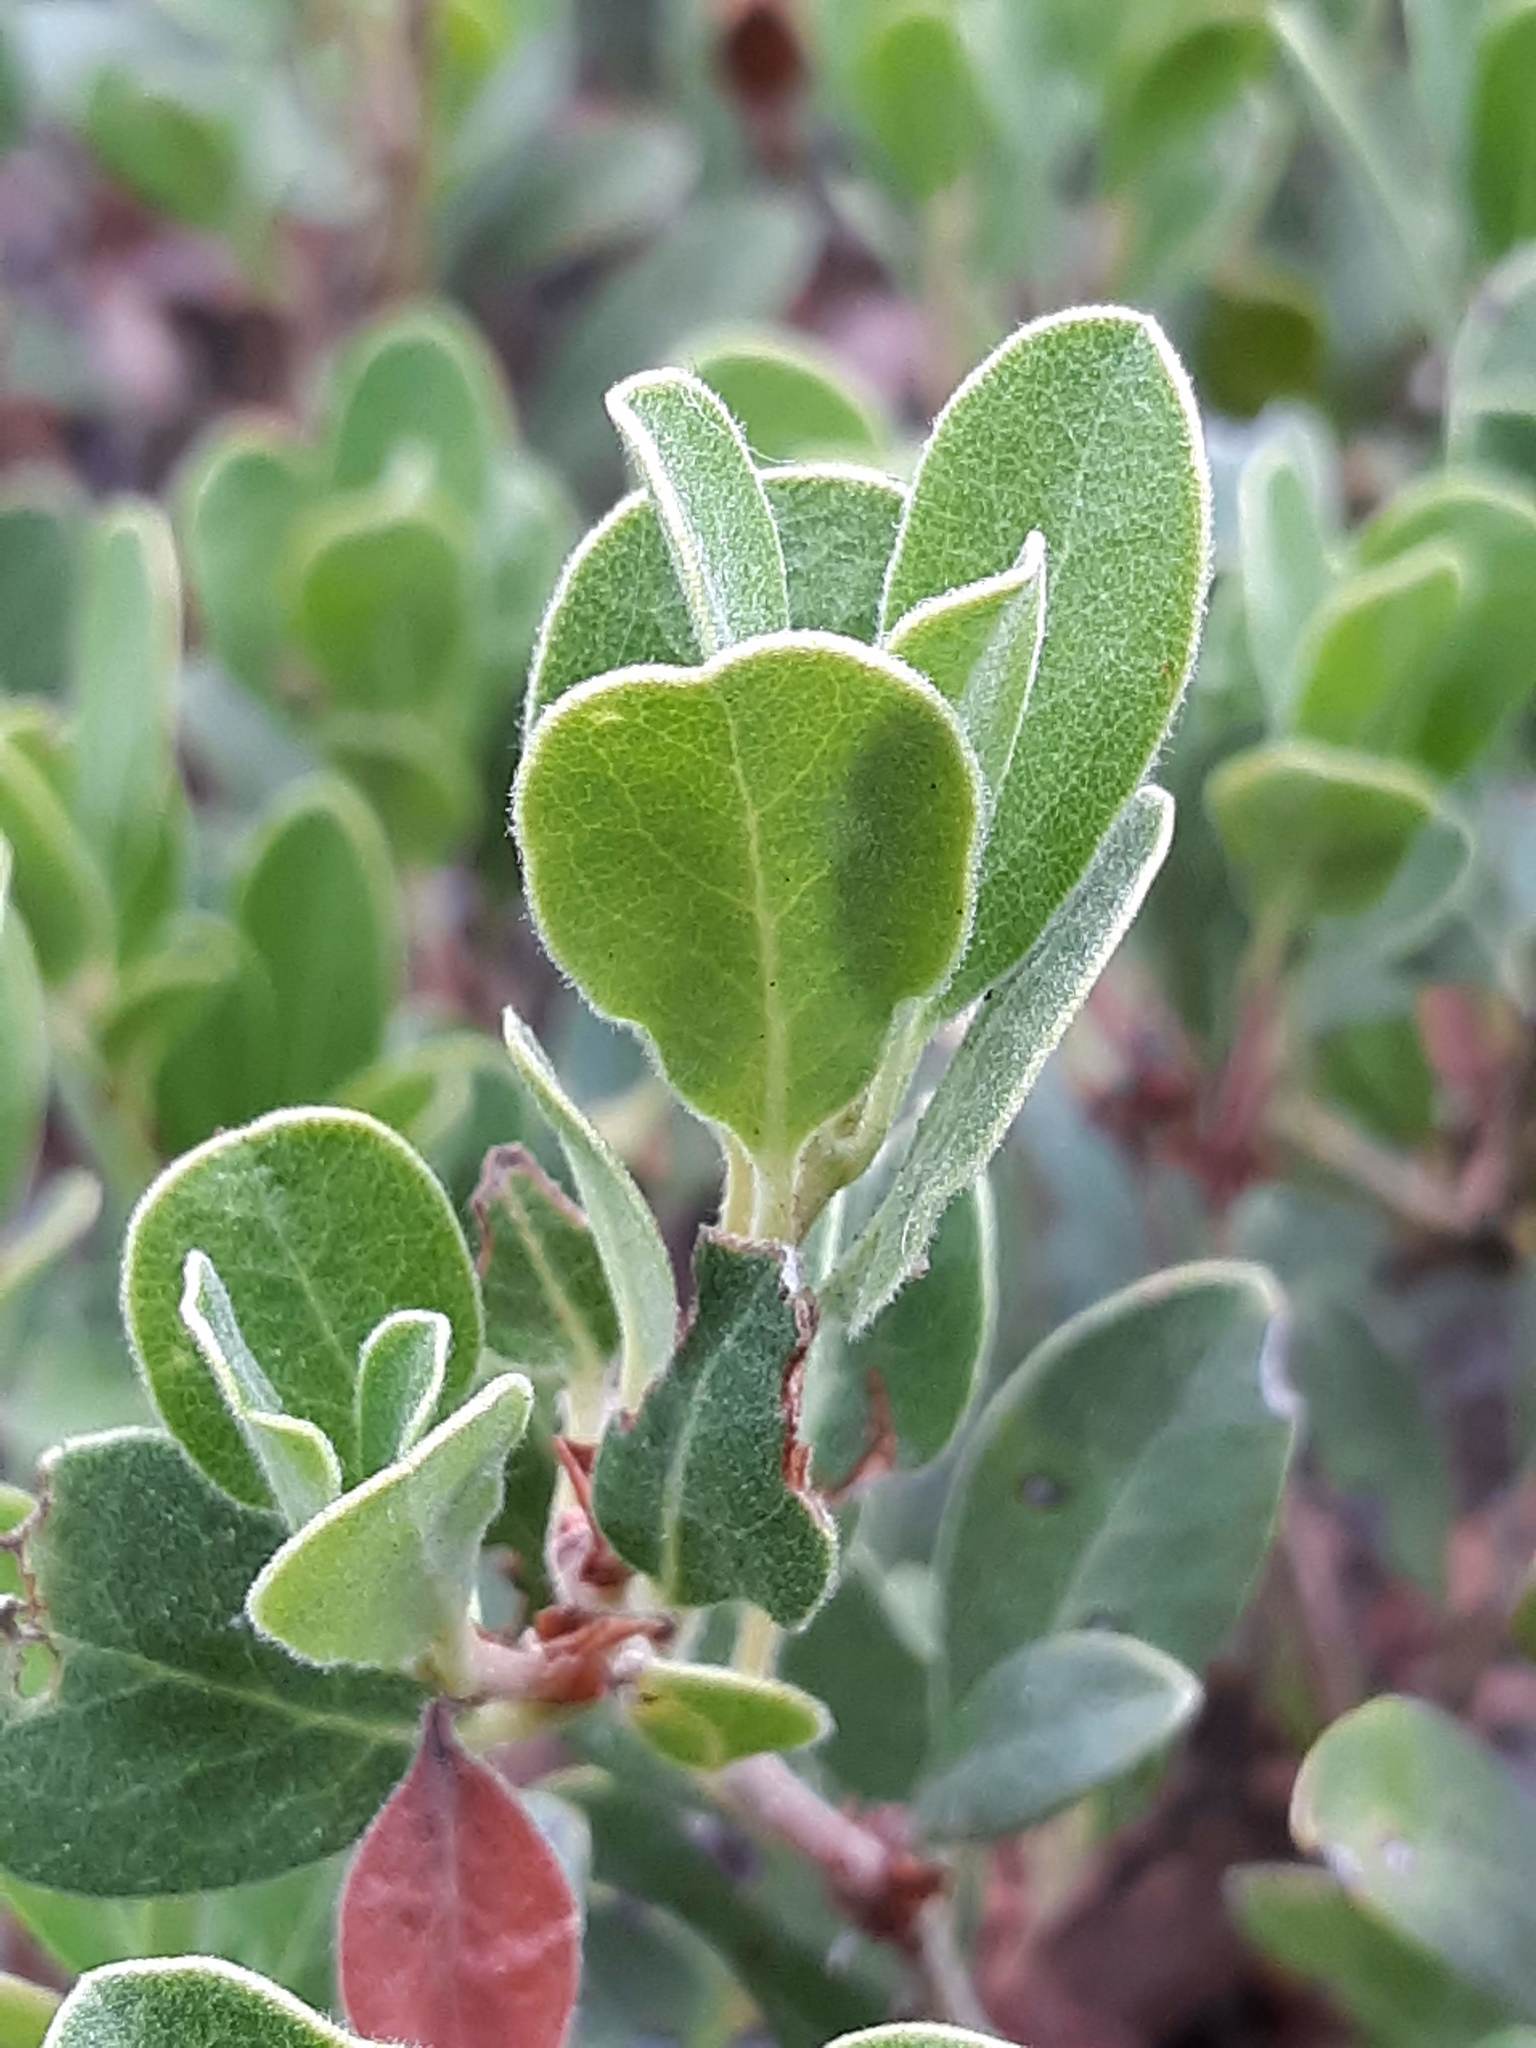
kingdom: Plantae
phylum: Tracheophyta
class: Magnoliopsida
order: Ericales
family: Ericaceae
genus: Arctostaphylos
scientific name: Arctostaphylos uva-ursi
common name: Bearberry
